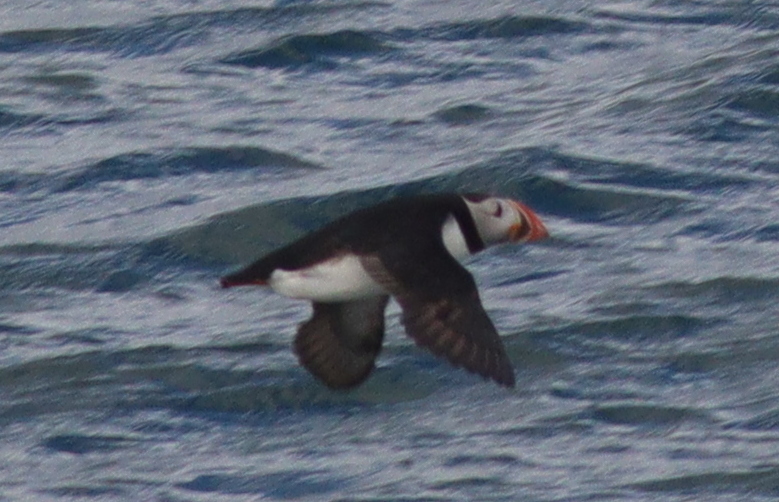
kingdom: Animalia
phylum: Chordata
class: Aves
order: Charadriiformes
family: Alcidae
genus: Fratercula
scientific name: Fratercula arctica
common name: Atlantic puffin
